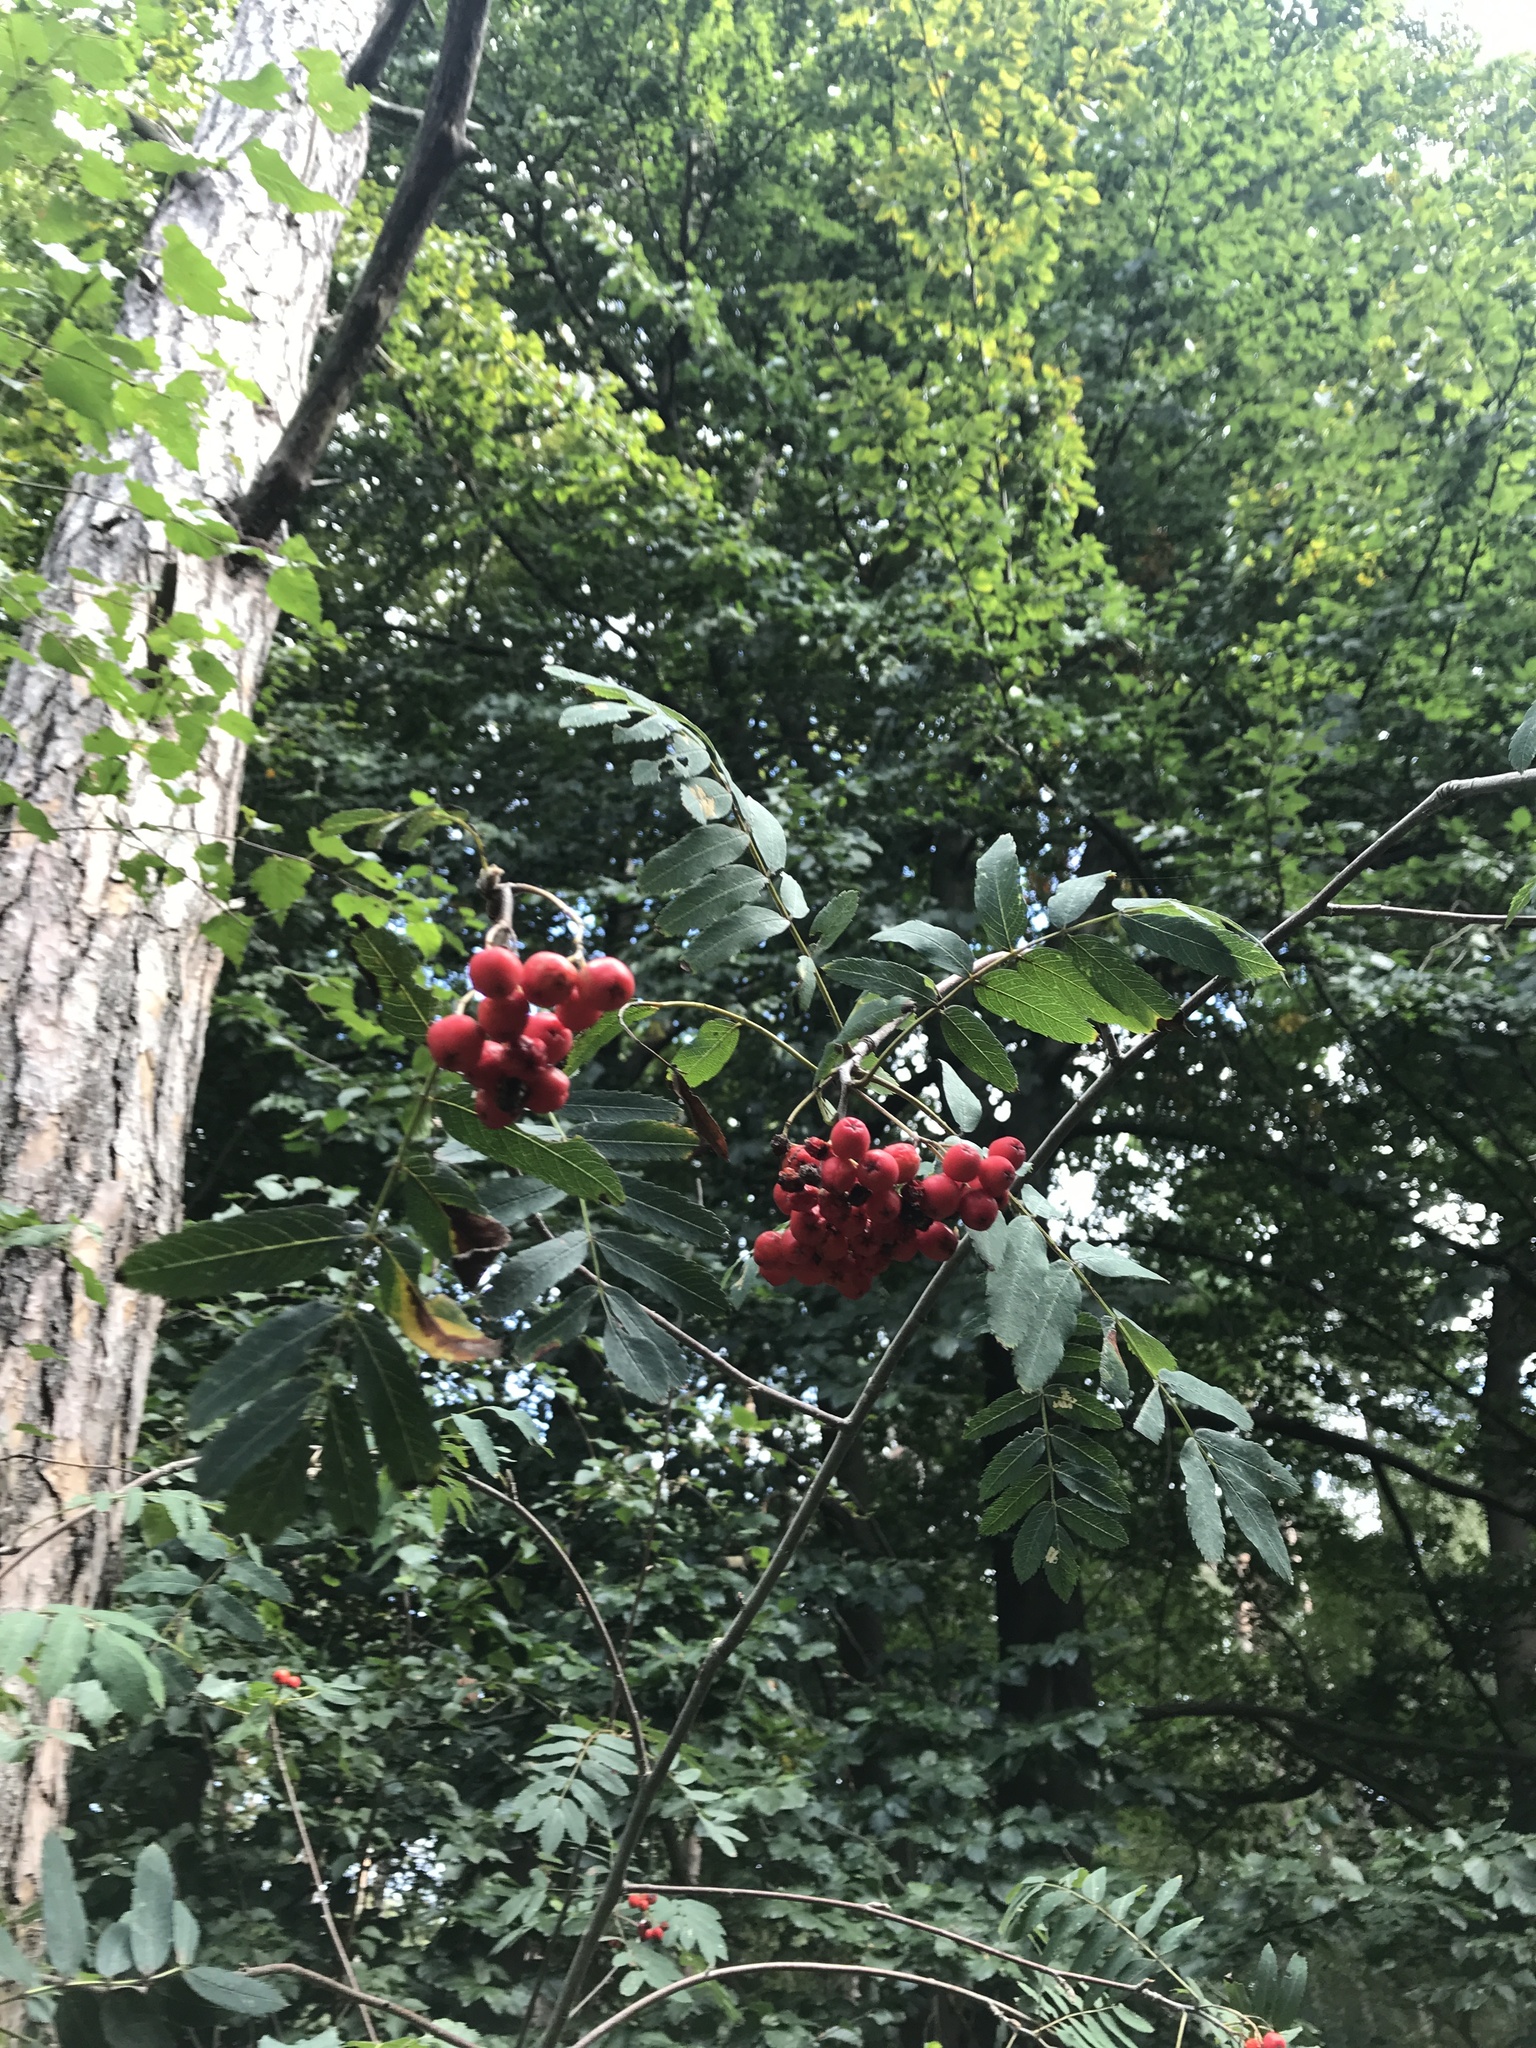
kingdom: Plantae
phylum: Tracheophyta
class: Magnoliopsida
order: Rosales
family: Rosaceae
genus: Sorbus
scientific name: Sorbus aucuparia
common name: Rowan
